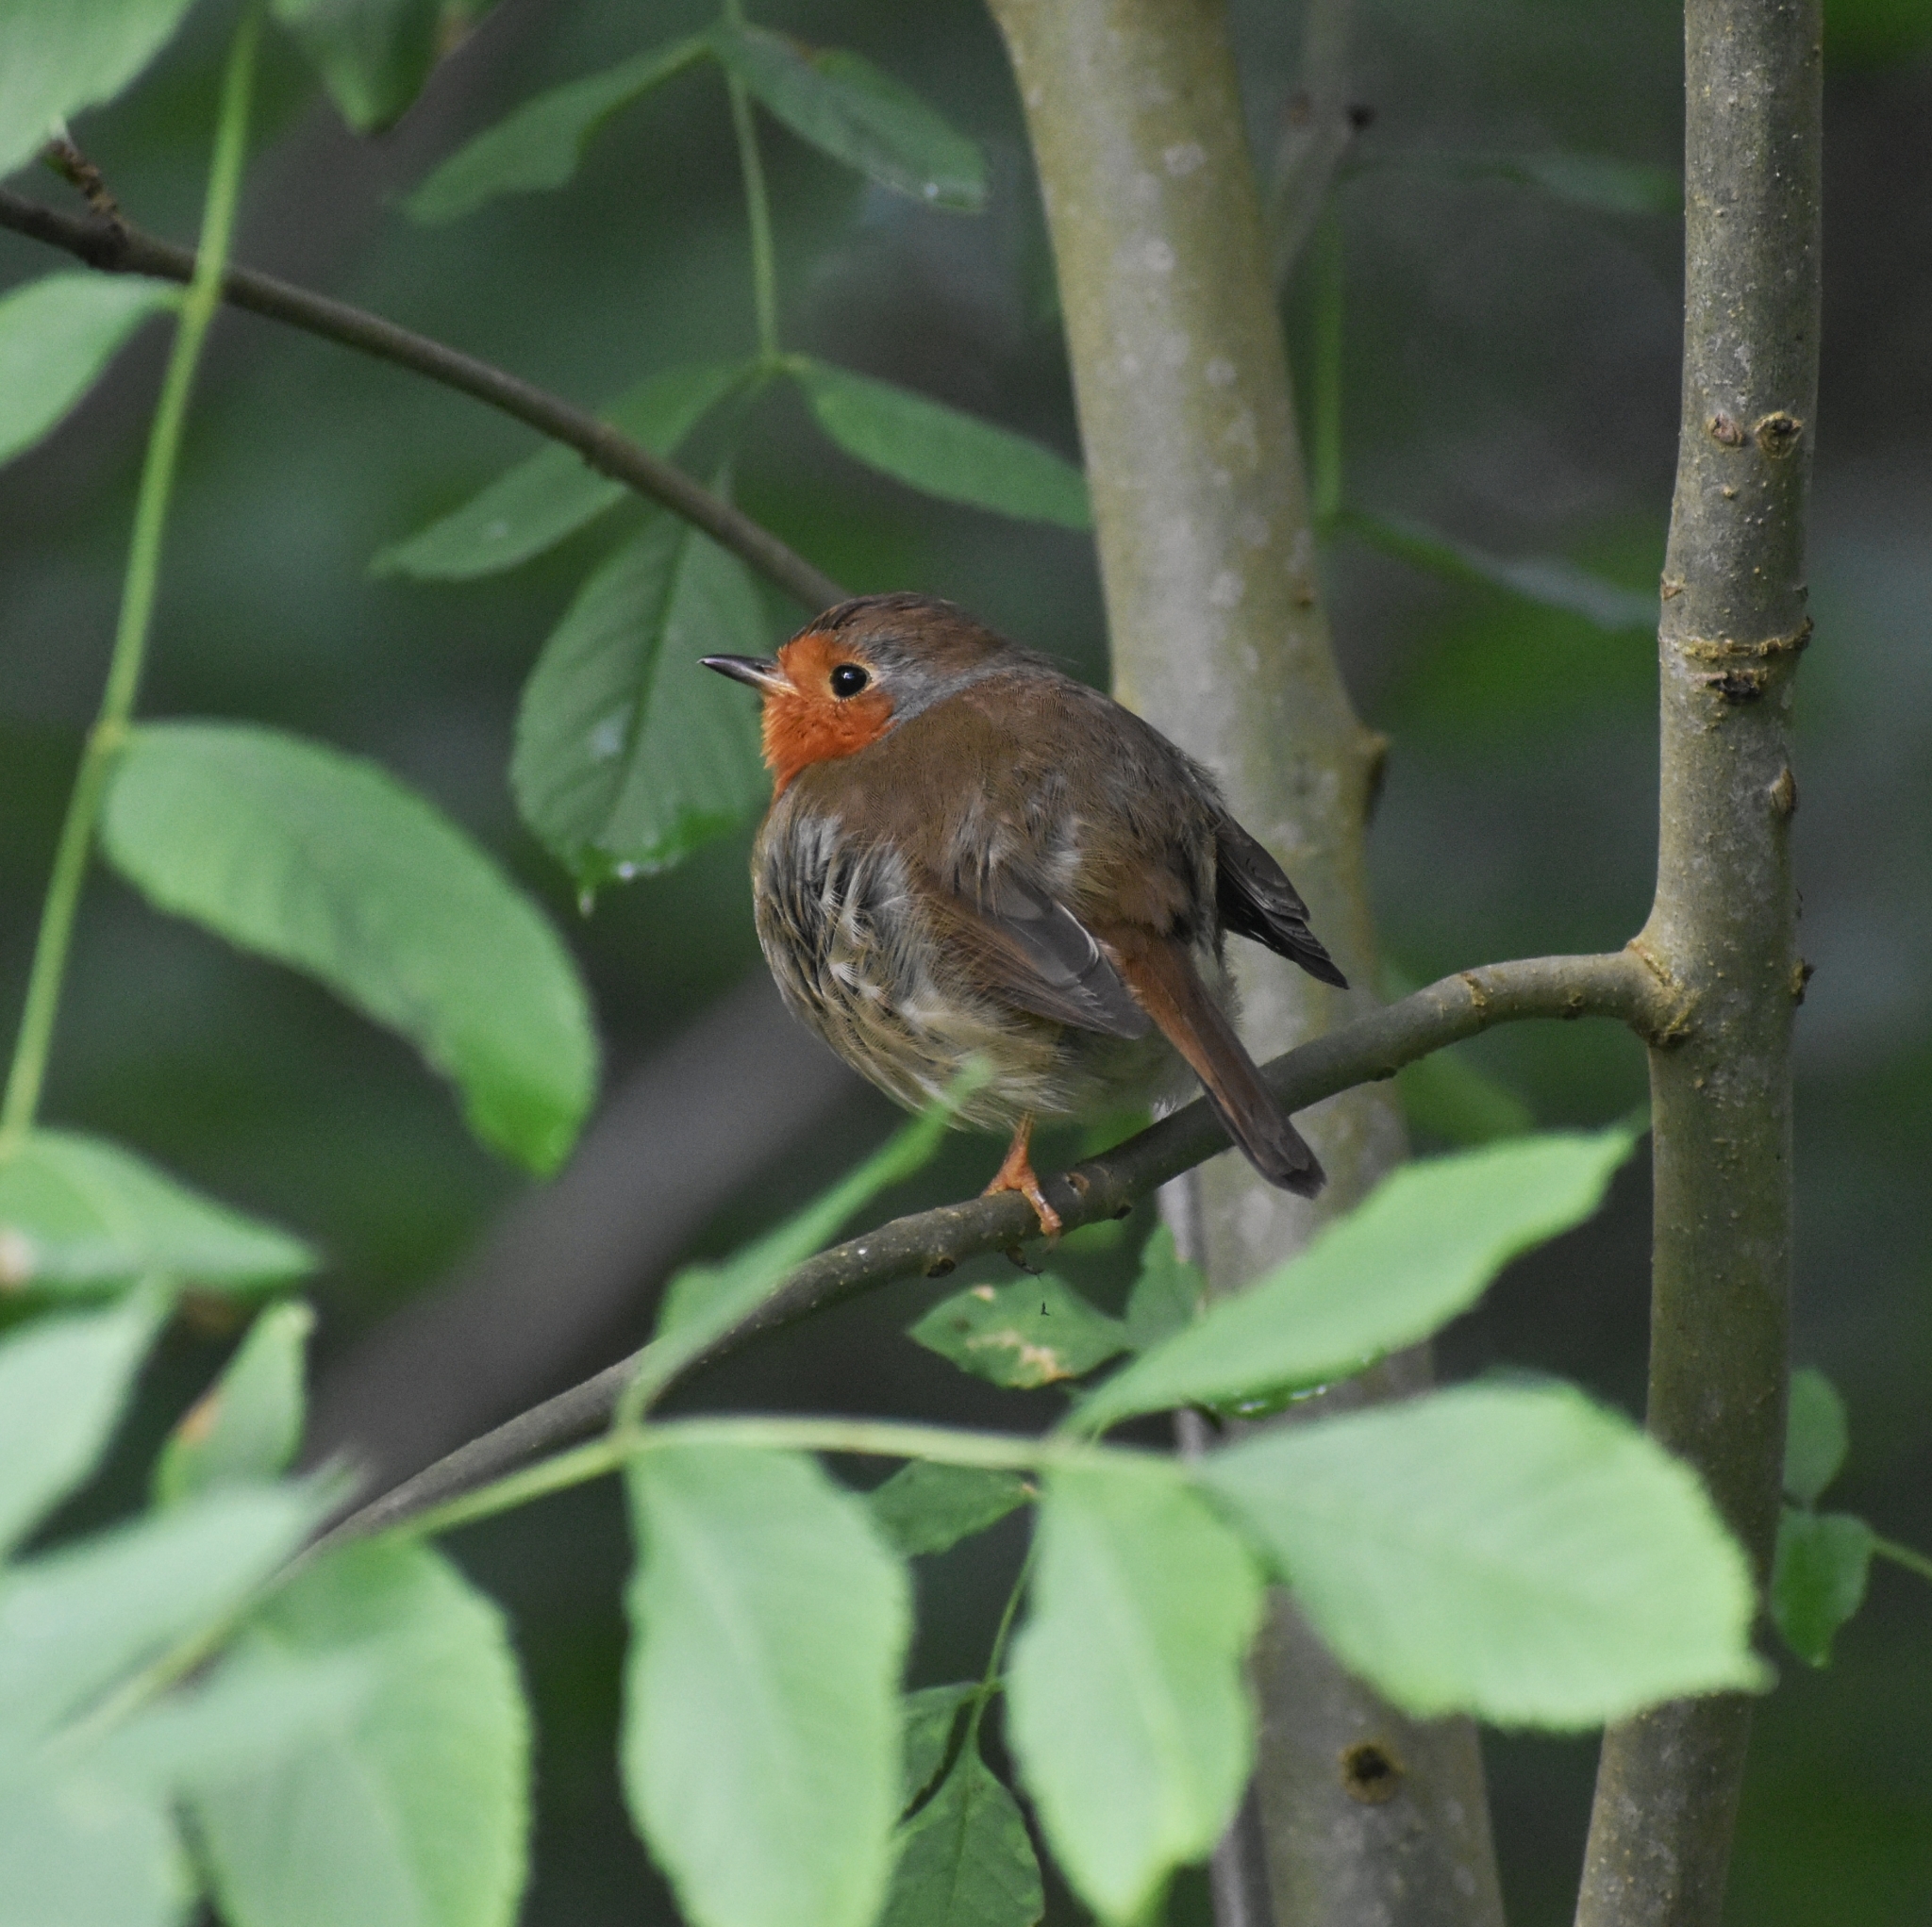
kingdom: Animalia
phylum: Chordata
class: Aves
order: Passeriformes
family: Muscicapidae
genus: Erithacus
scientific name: Erithacus rubecula
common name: European robin
